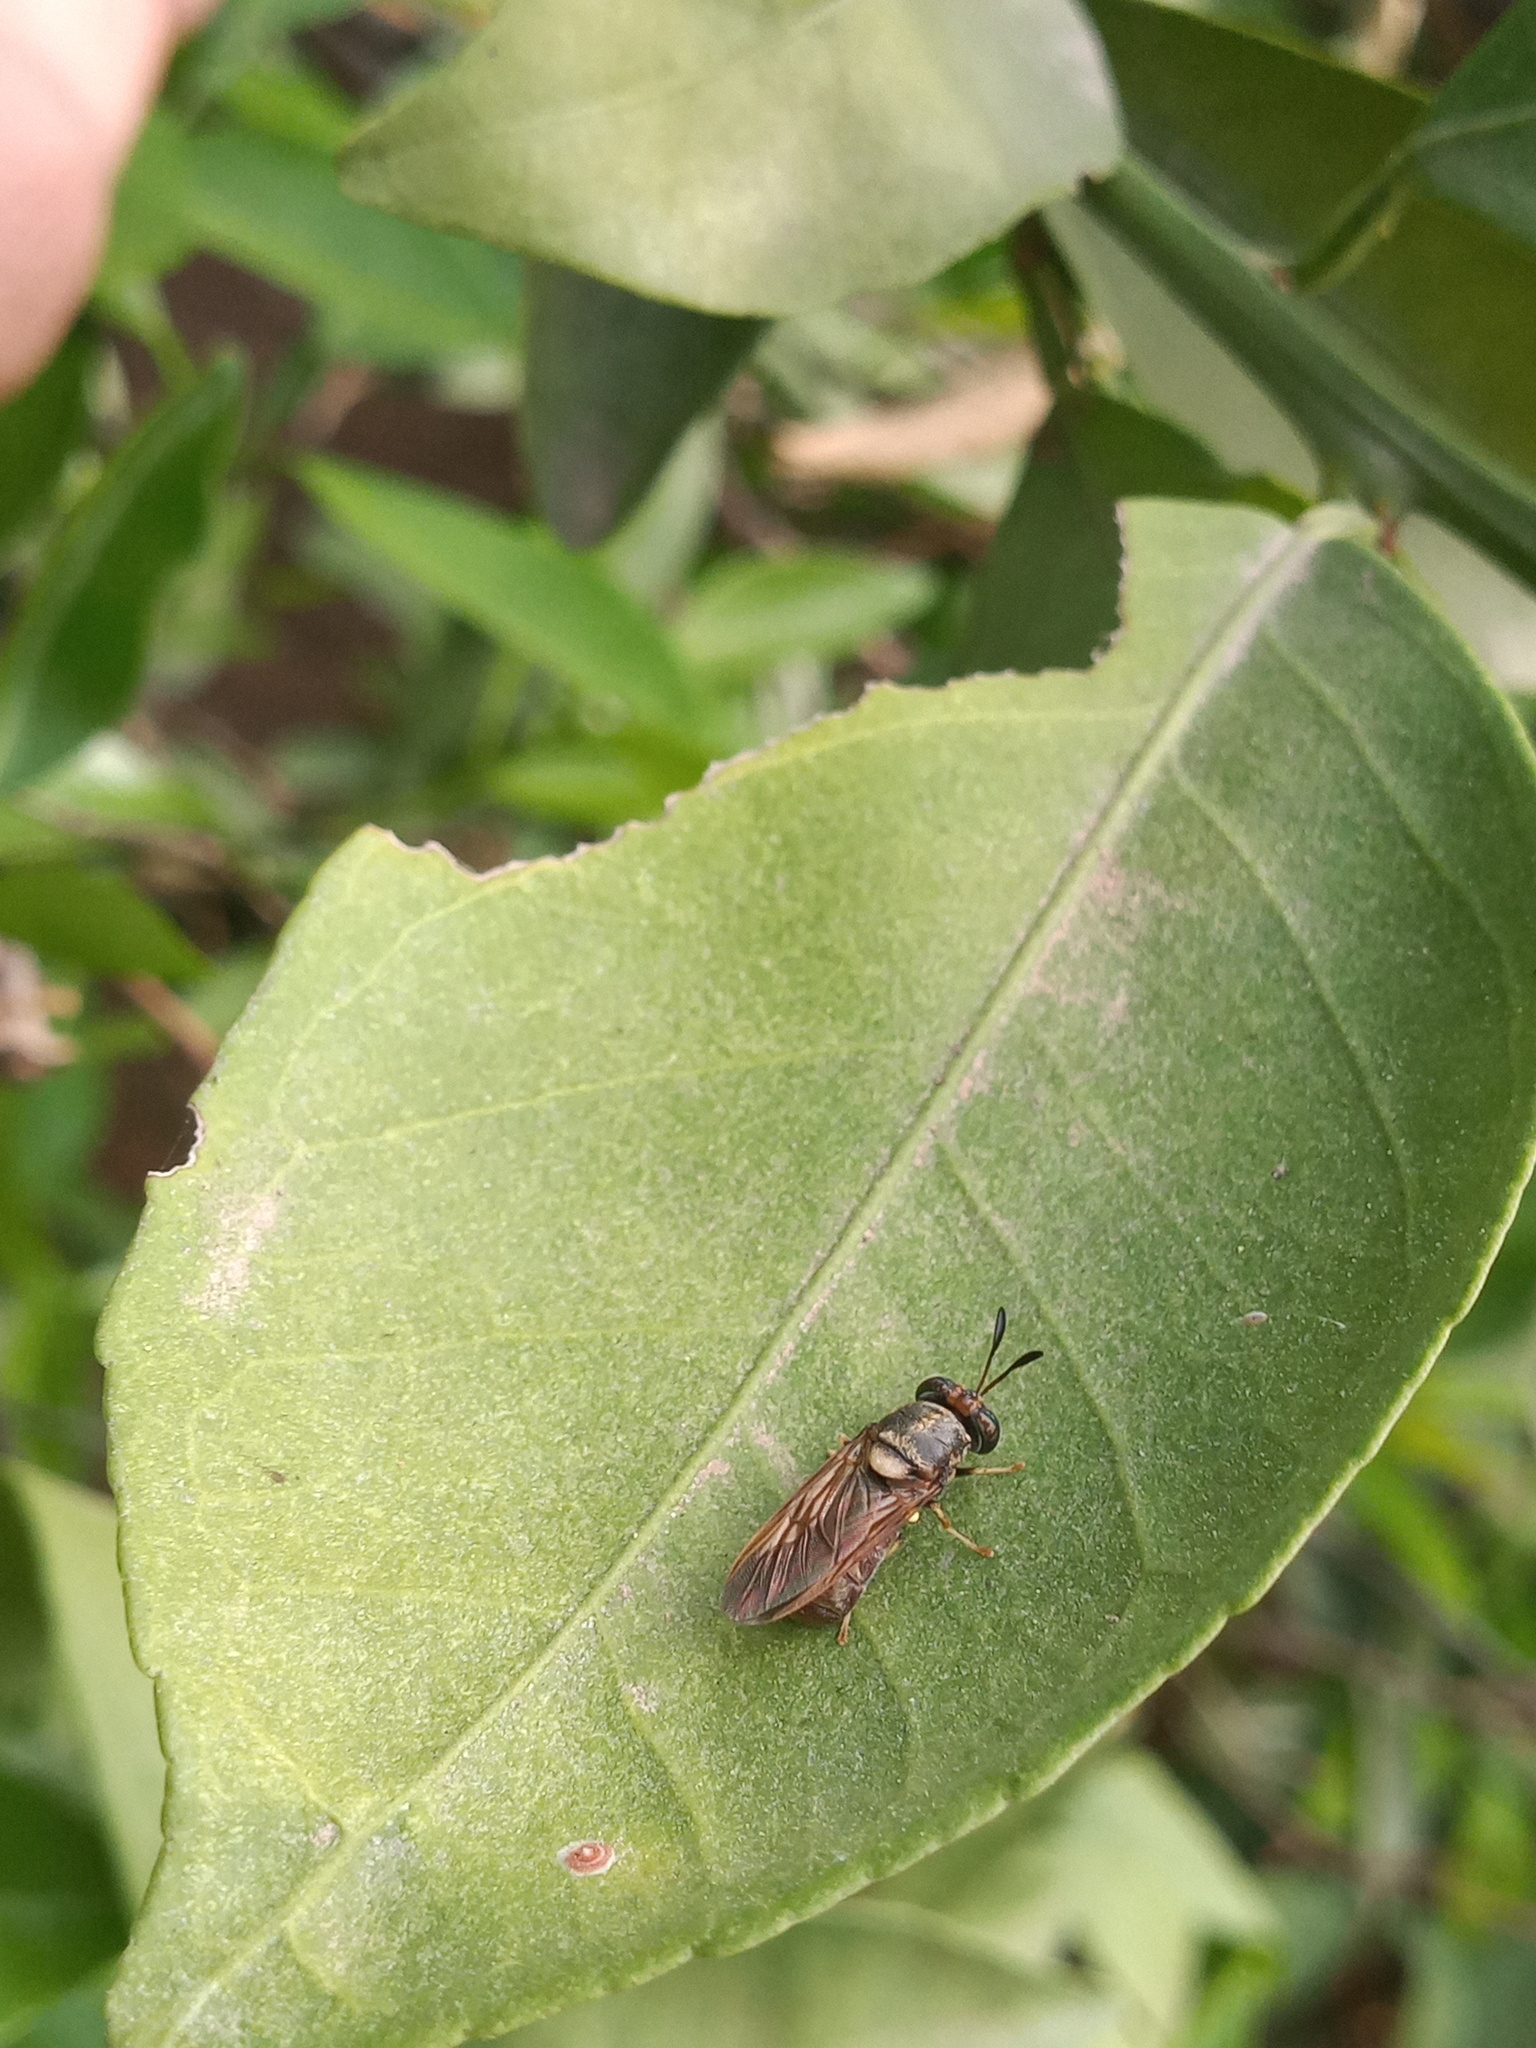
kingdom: Animalia
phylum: Arthropoda
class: Insecta
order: Diptera
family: Stratiomyidae
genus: Hermetia
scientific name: Hermetia chrysopila
